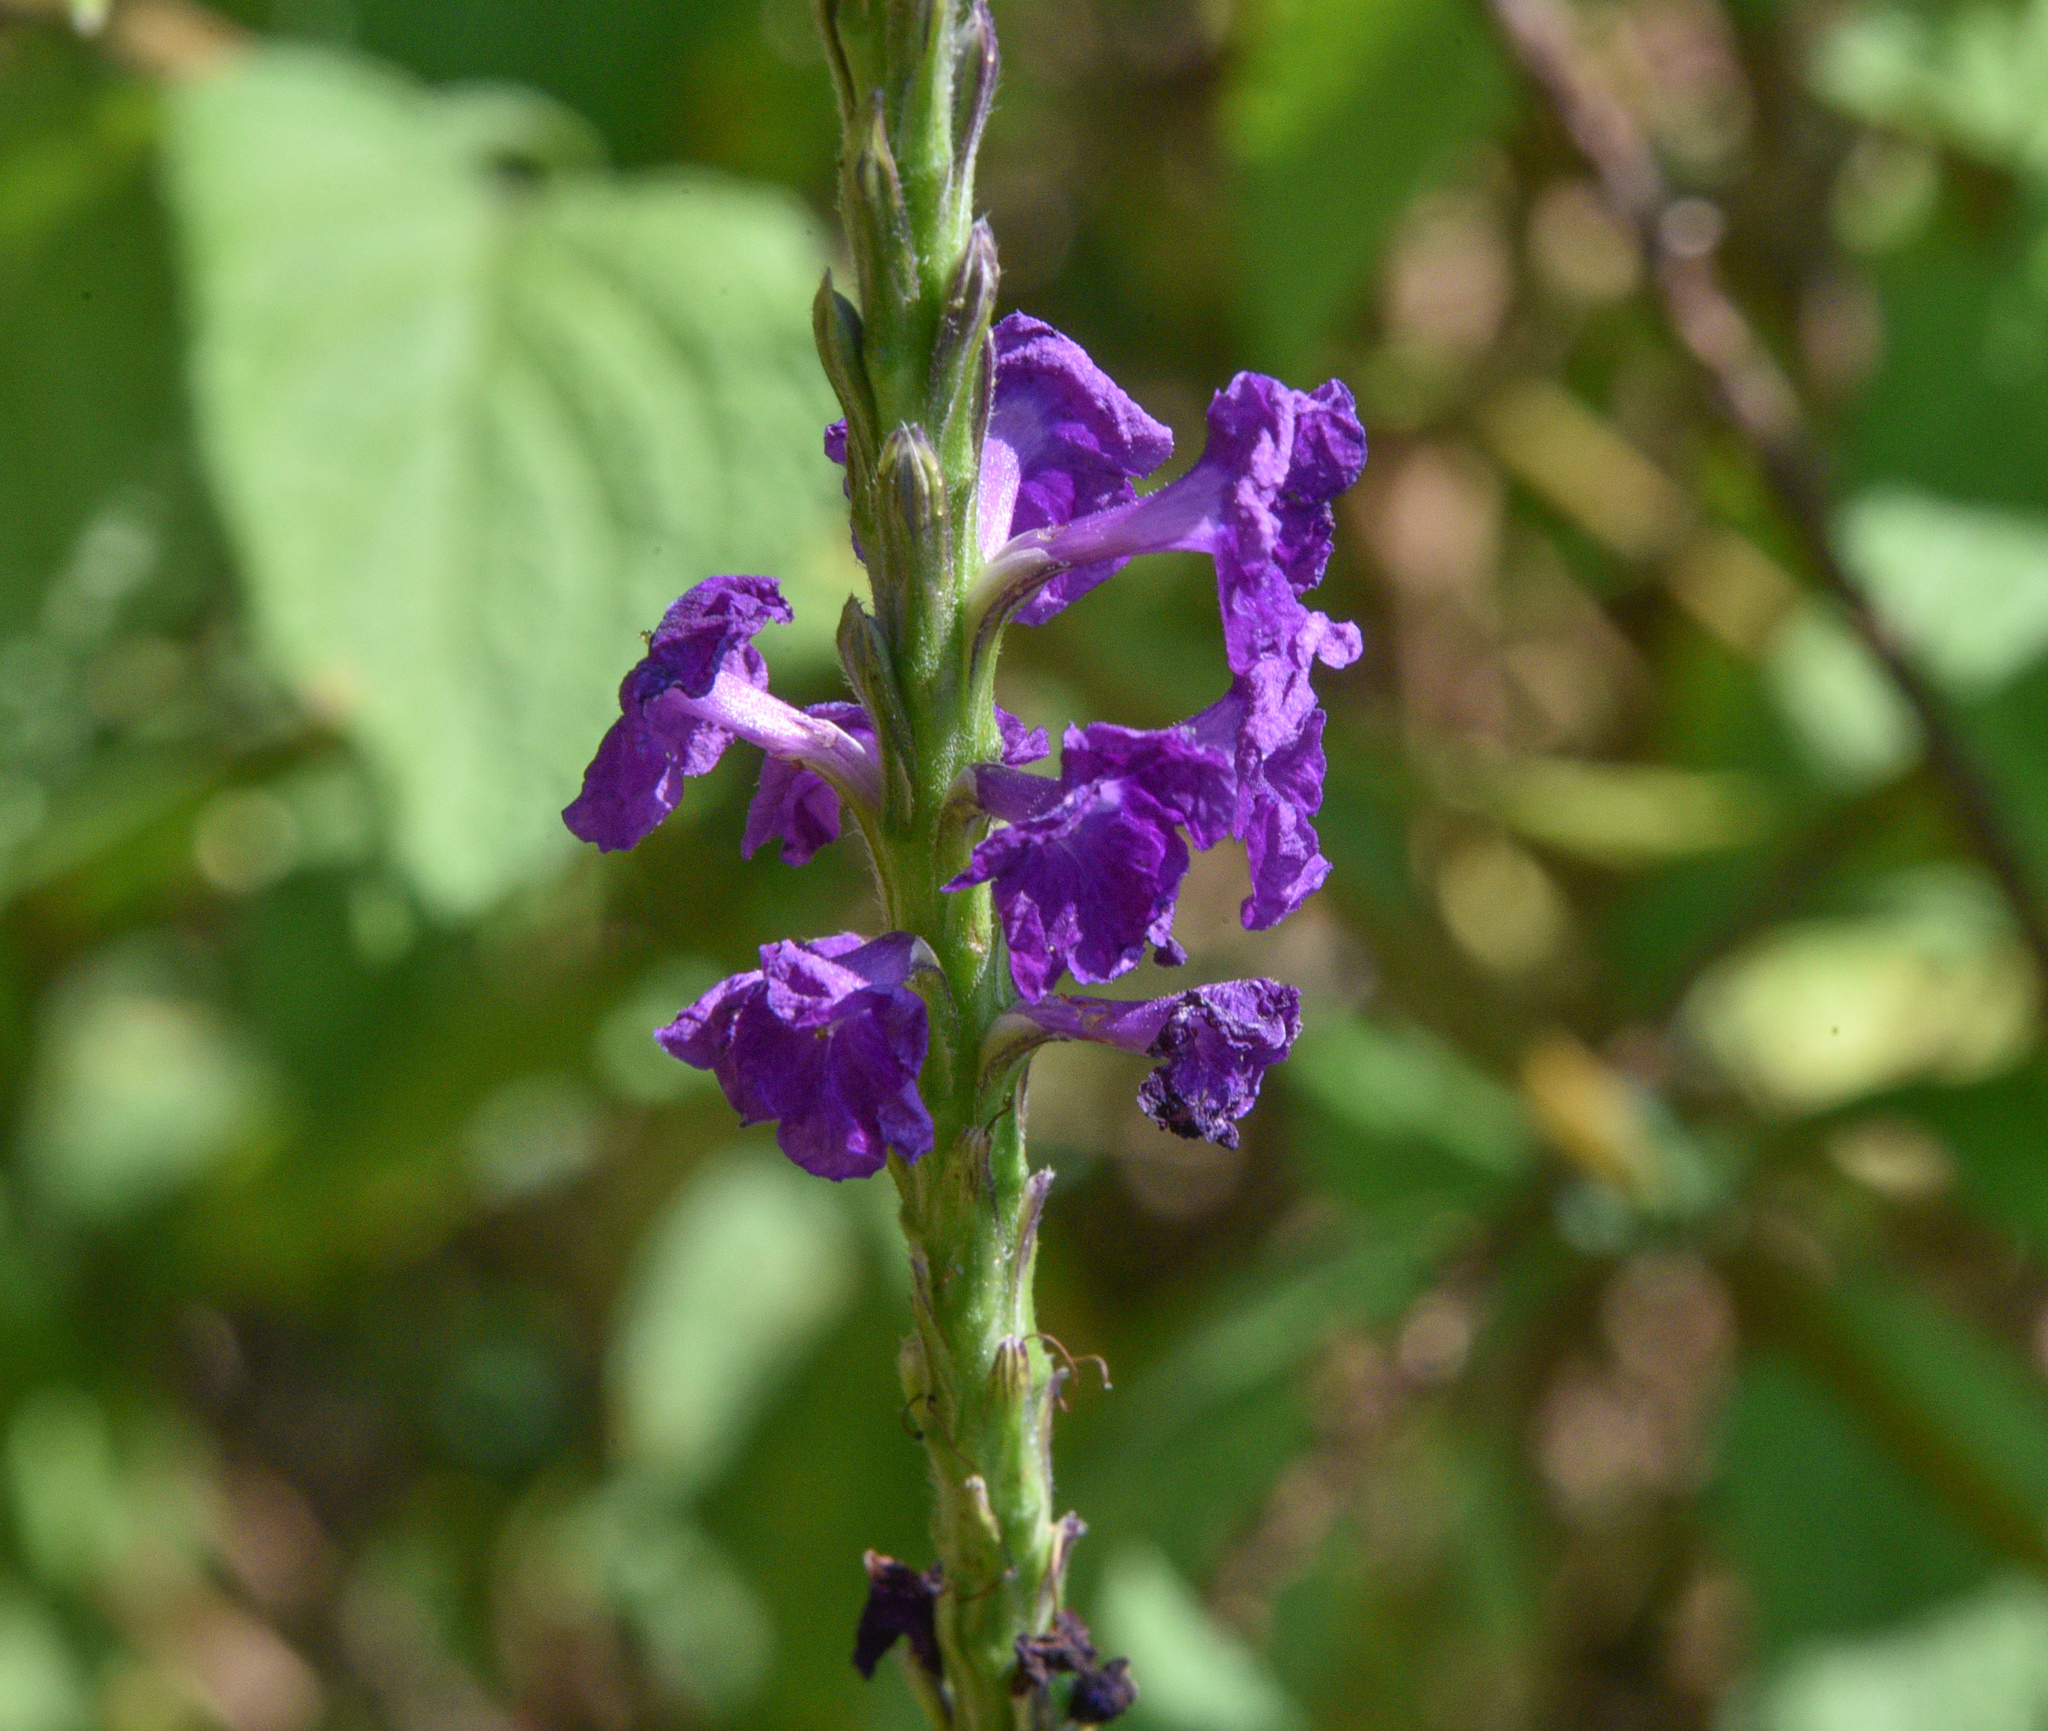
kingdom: Plantae
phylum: Tracheophyta
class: Magnoliopsida
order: Lamiales
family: Verbenaceae
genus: Stachytarpheta
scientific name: Stachytarpheta jamaicensis
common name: Light-blue snakeweed
